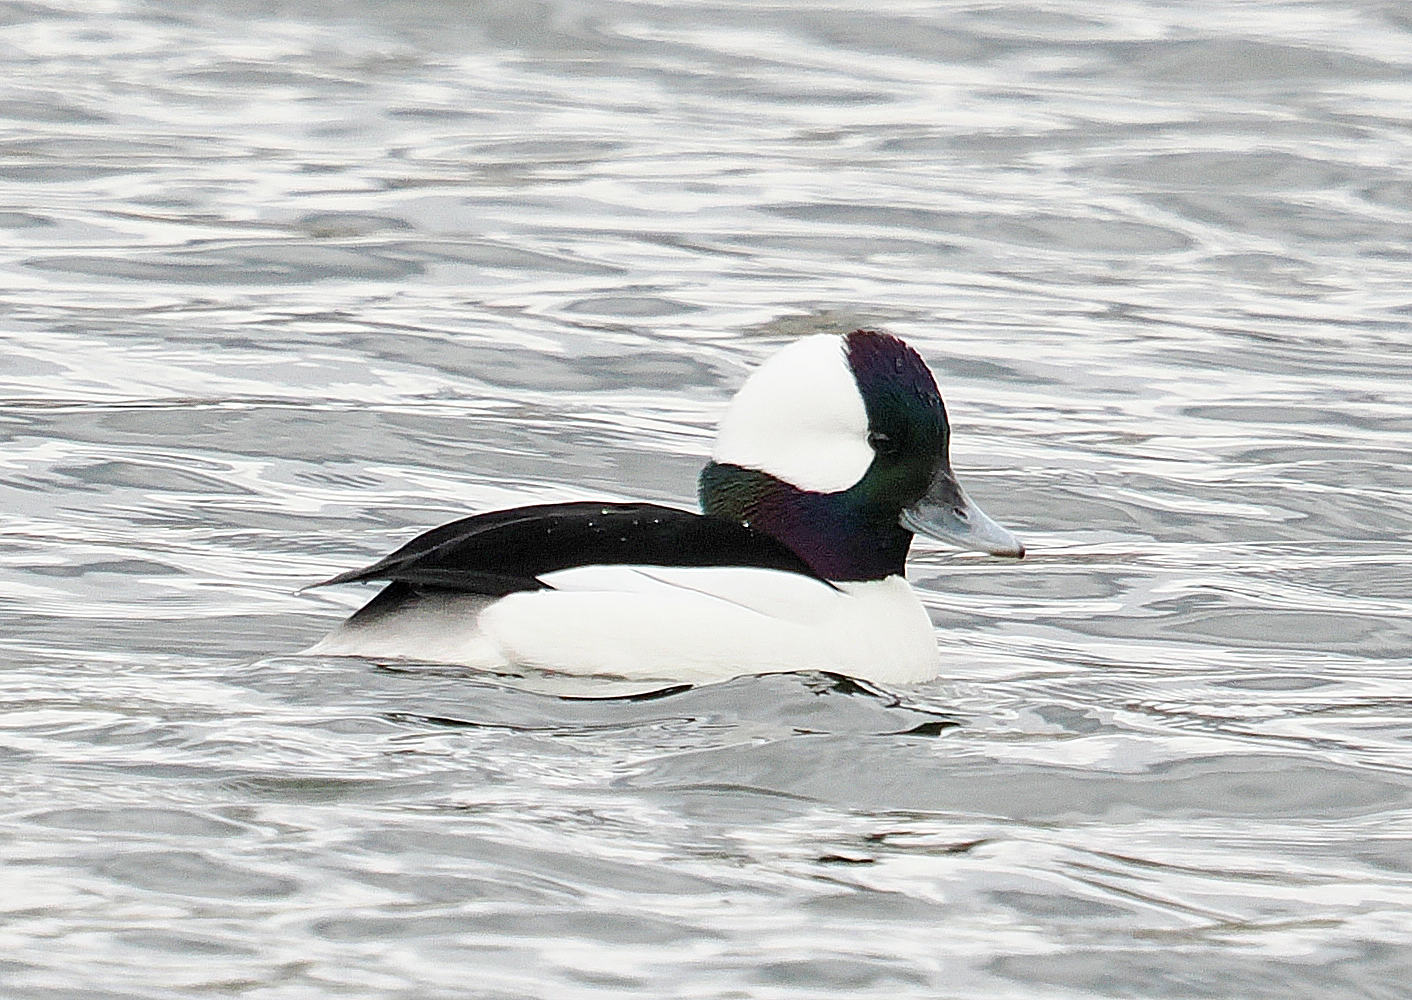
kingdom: Animalia
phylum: Chordata
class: Aves
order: Anseriformes
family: Anatidae
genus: Bucephala
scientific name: Bucephala albeola
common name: Bufflehead
